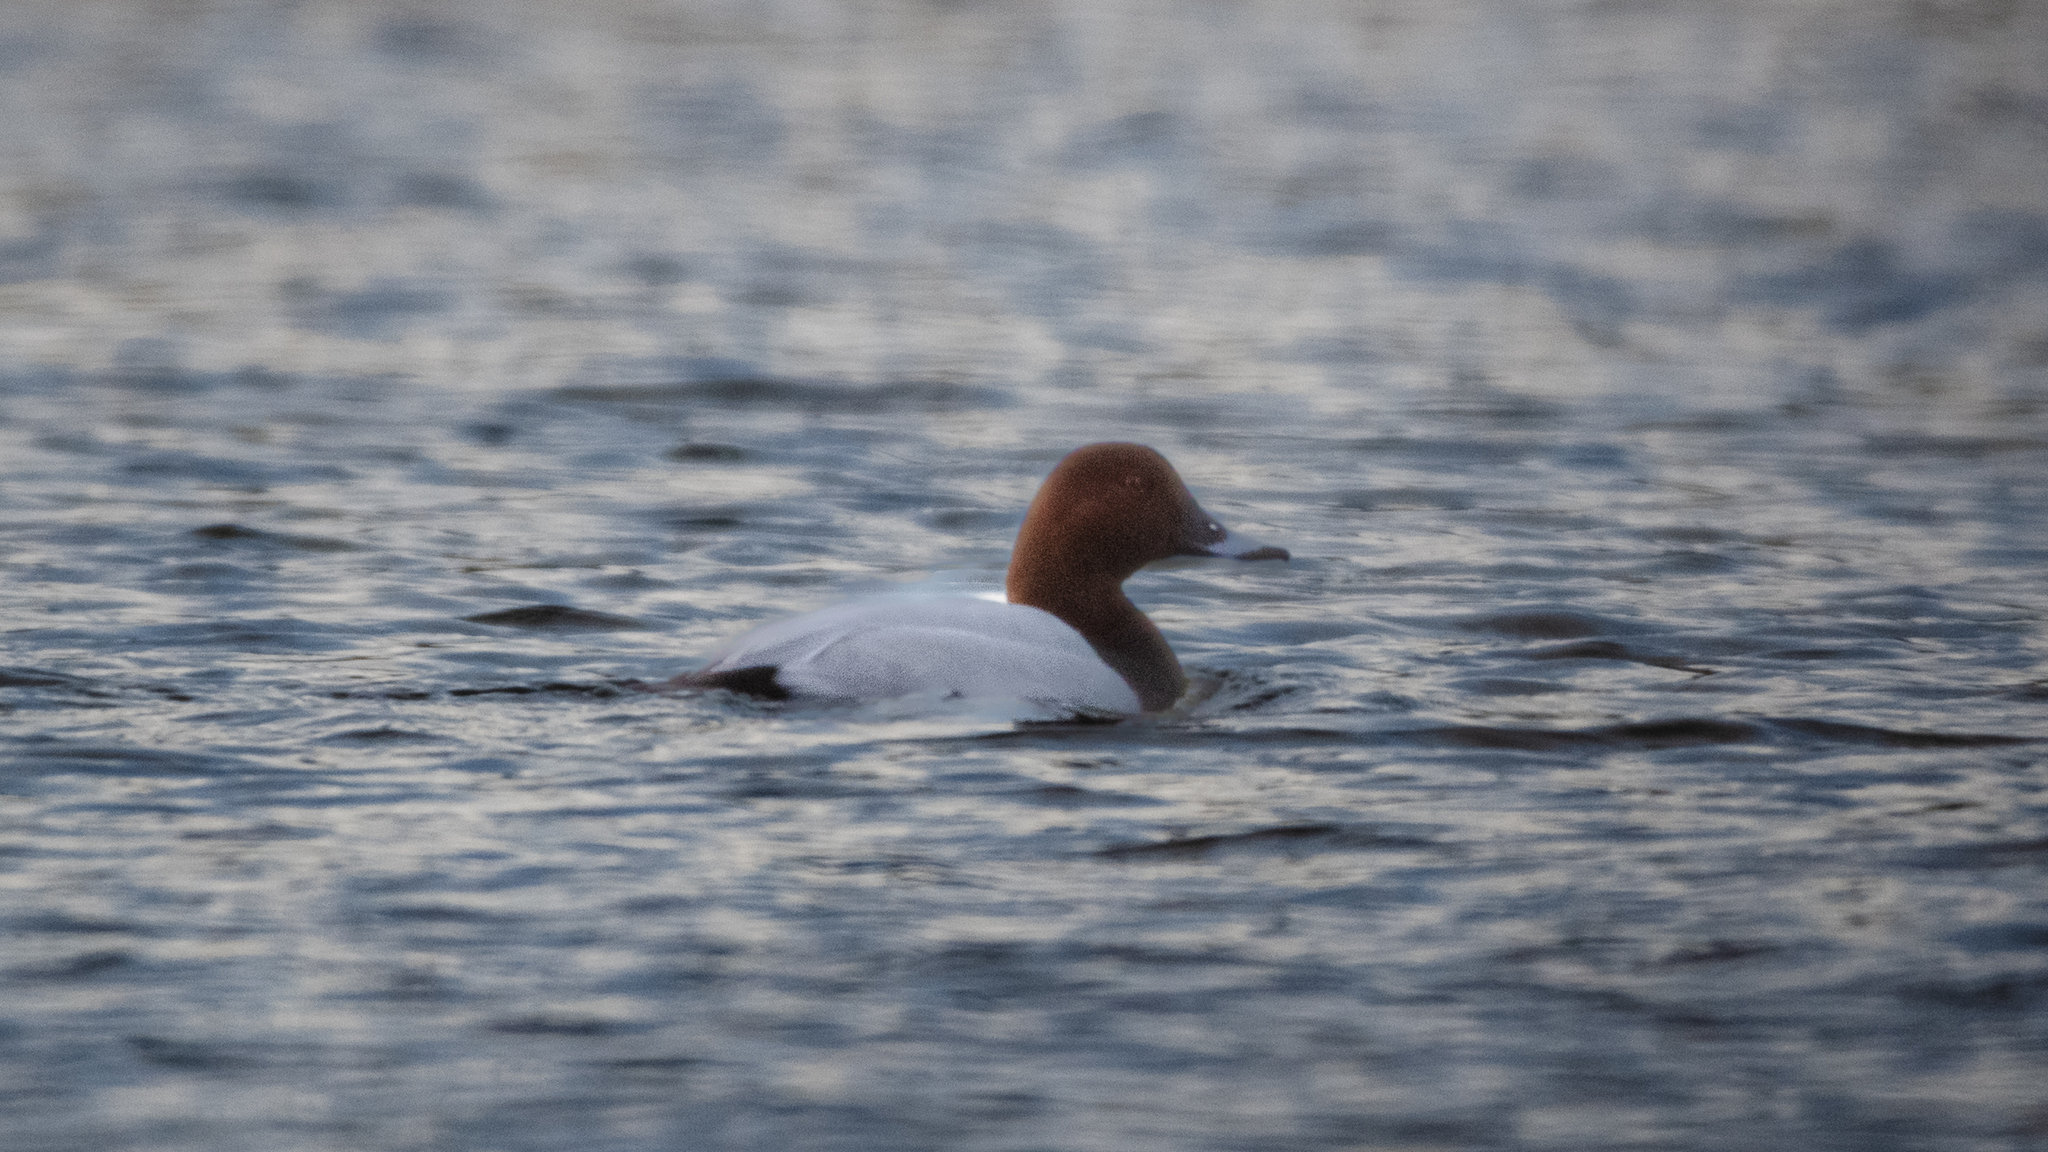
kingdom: Animalia
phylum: Chordata
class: Aves
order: Anseriformes
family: Anatidae
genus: Aythya
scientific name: Aythya ferina
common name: Common pochard
